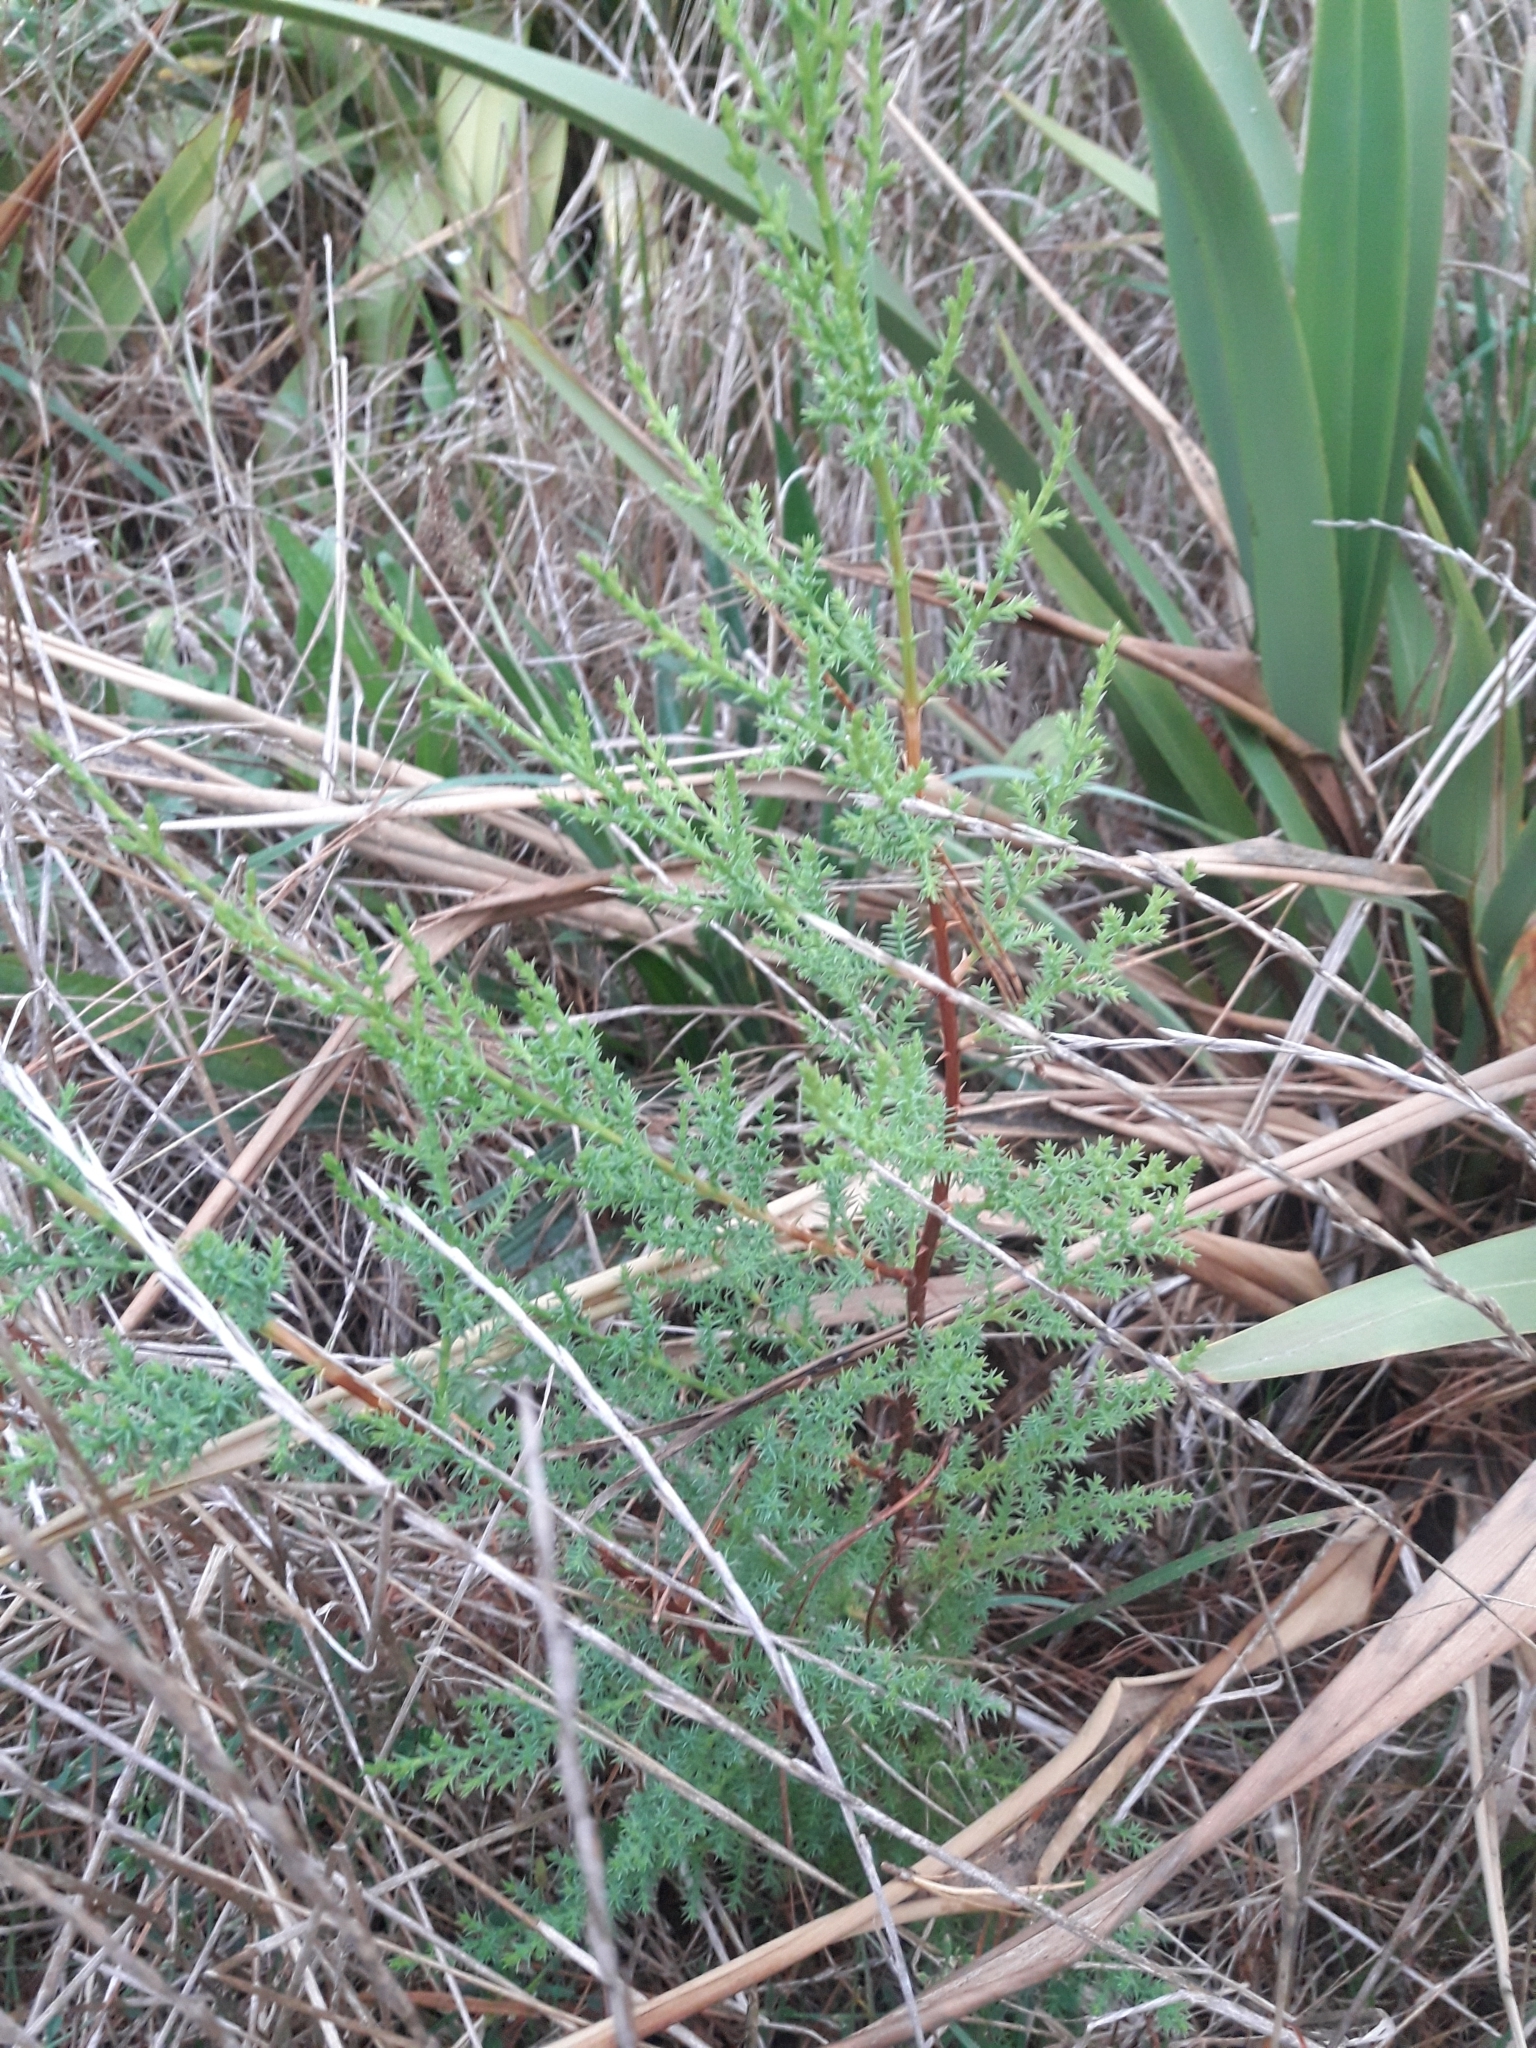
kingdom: Plantae
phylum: Tracheophyta
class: Pinopsida
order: Pinales
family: Cupressaceae
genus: Cupressus
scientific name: Cupressus macrocarpa
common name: Monterey cypress
